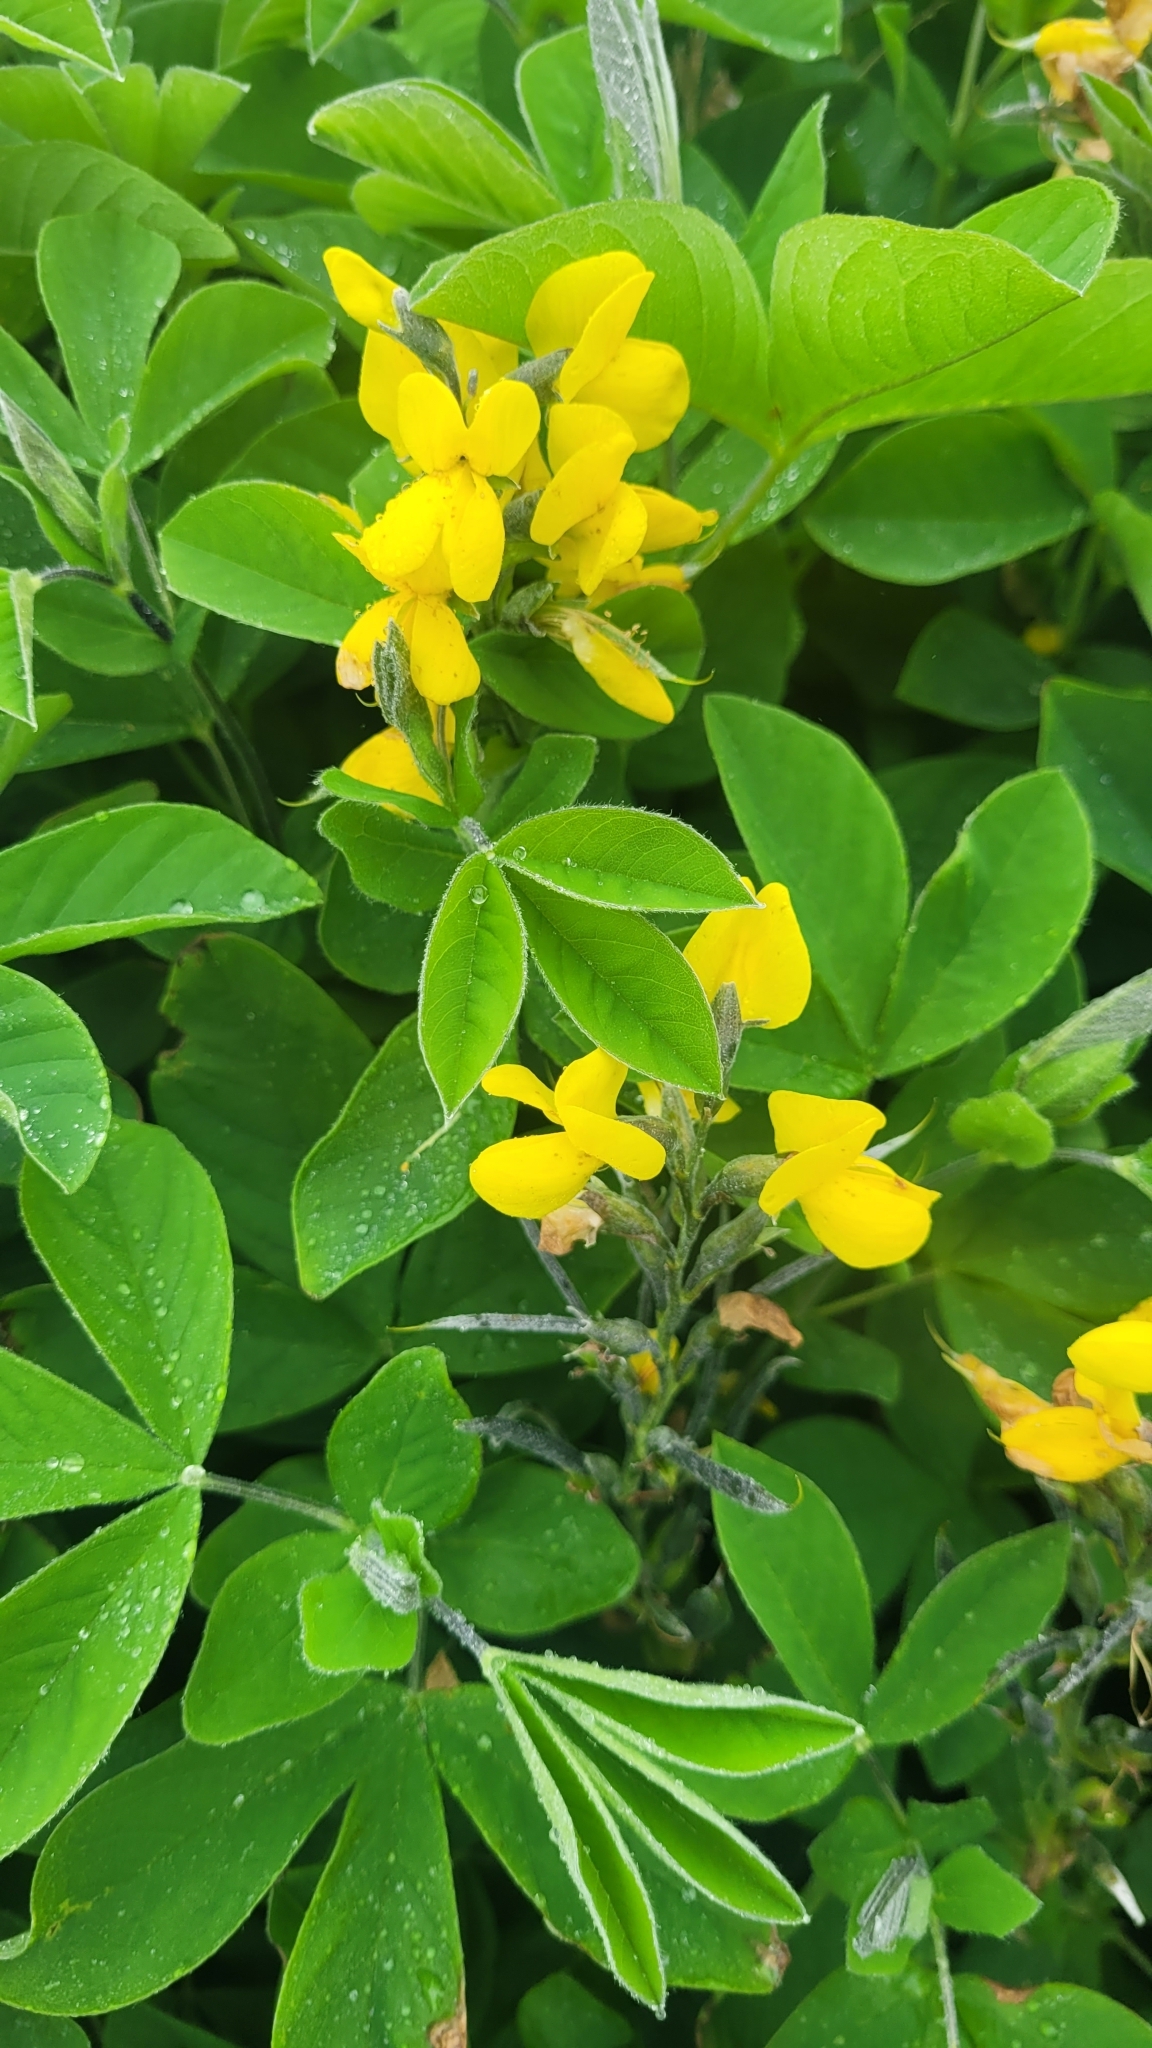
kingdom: Plantae
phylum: Tracheophyta
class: Magnoliopsida
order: Fabales
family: Fabaceae
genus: Thermopsis
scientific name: Thermopsis lanceolata
